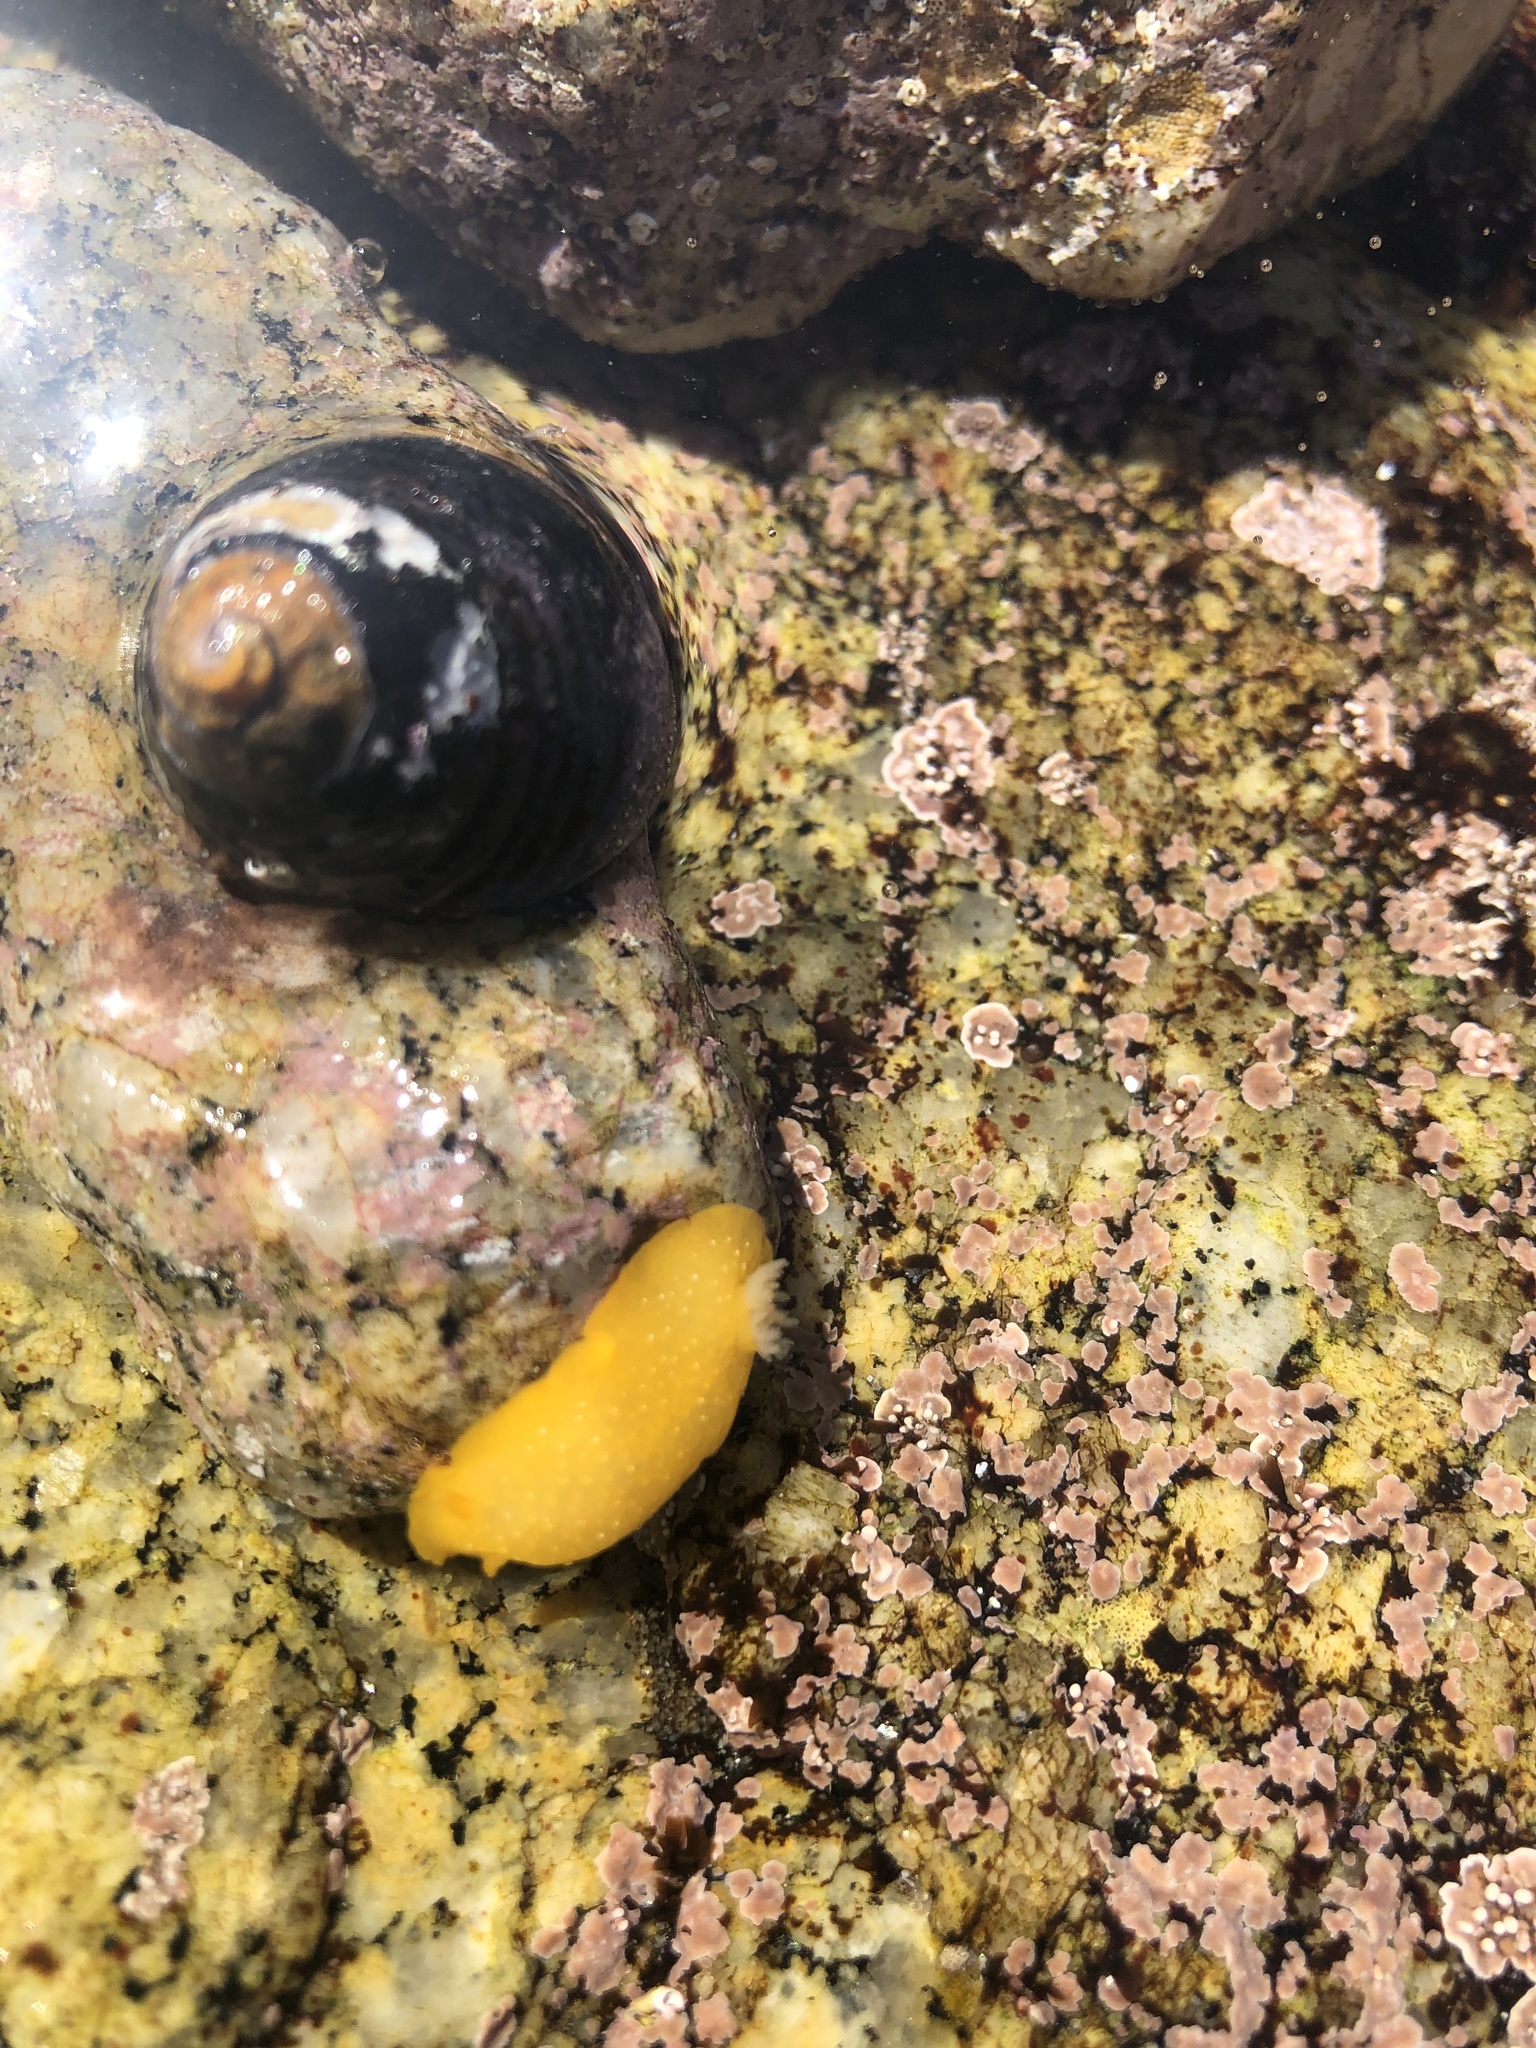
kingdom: Animalia
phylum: Mollusca
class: Gastropoda
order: Nudibranchia
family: Dendrodorididae
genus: Doriopsilla
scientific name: Doriopsilla fulva
